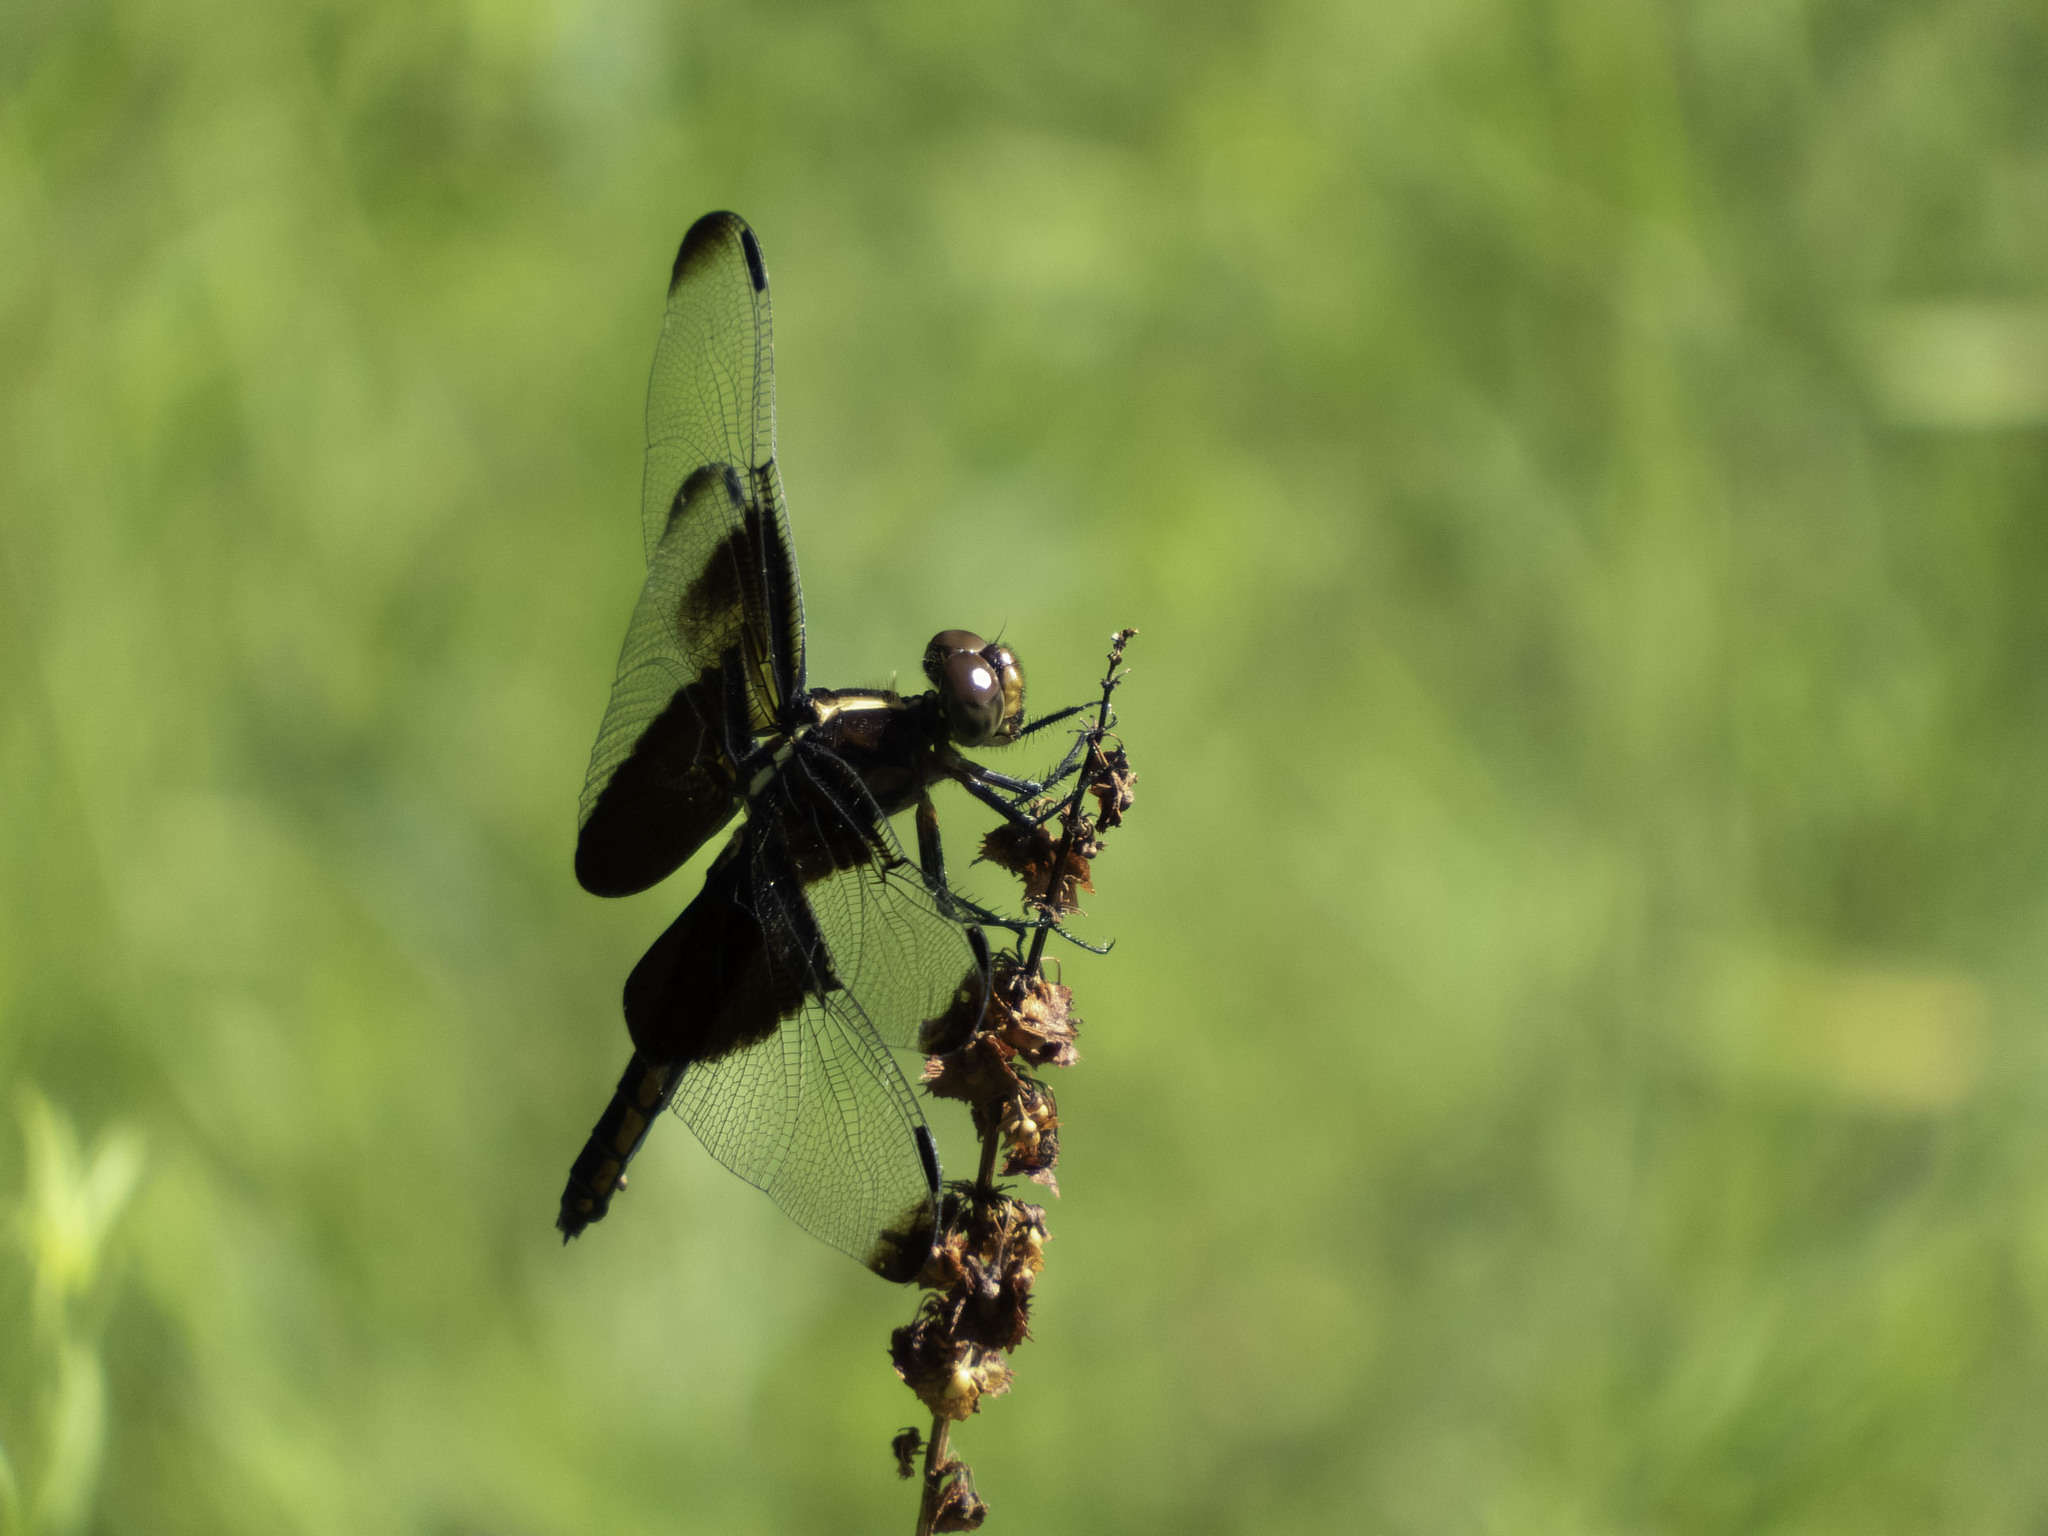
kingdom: Animalia
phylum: Arthropoda
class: Insecta
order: Odonata
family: Libellulidae
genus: Libellula
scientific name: Libellula luctuosa
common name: Widow skimmer
